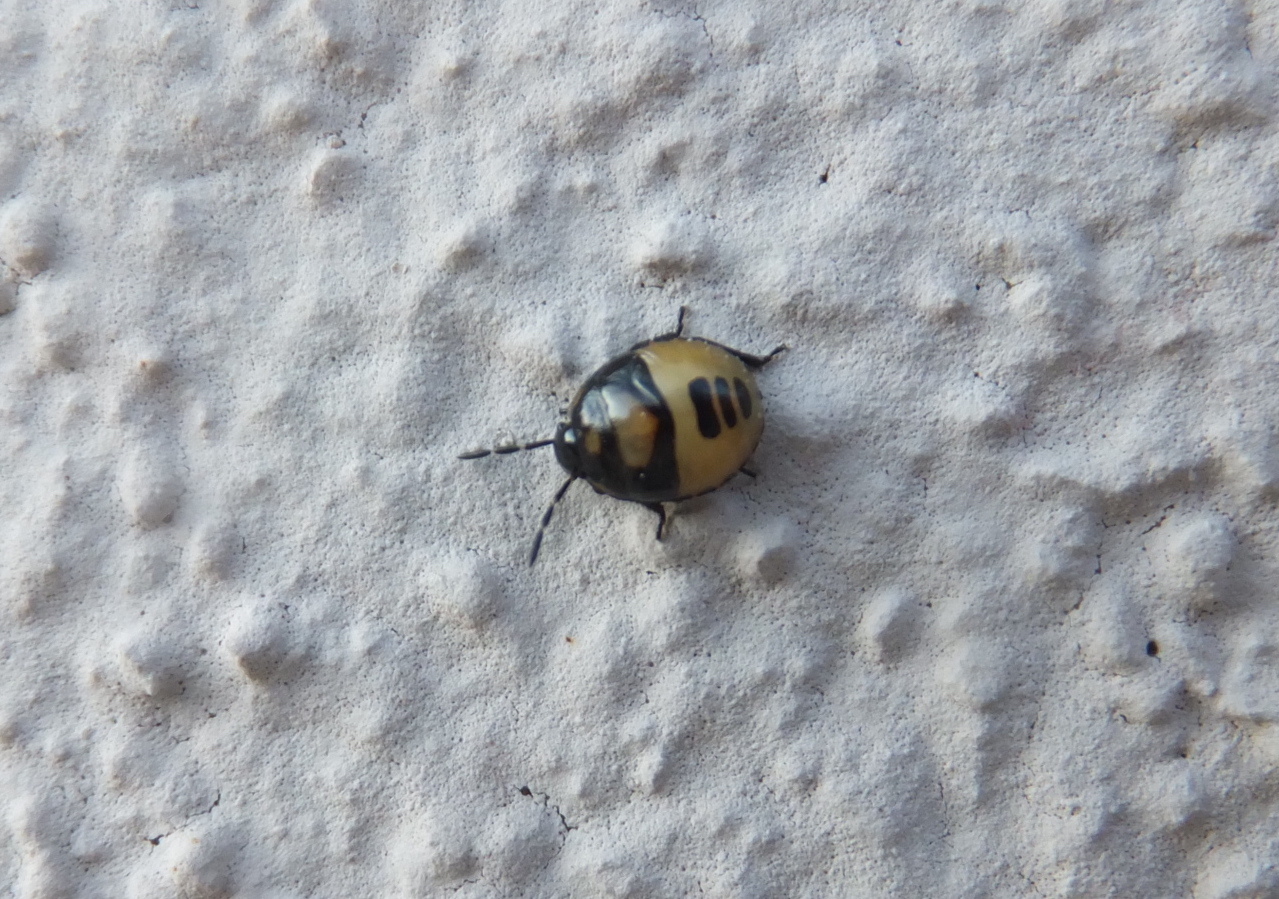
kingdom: Animalia
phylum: Arthropoda
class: Insecta
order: Hemiptera
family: Cydnidae
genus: Tritomegas
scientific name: Tritomegas bicolor
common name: Pied shieldbug
